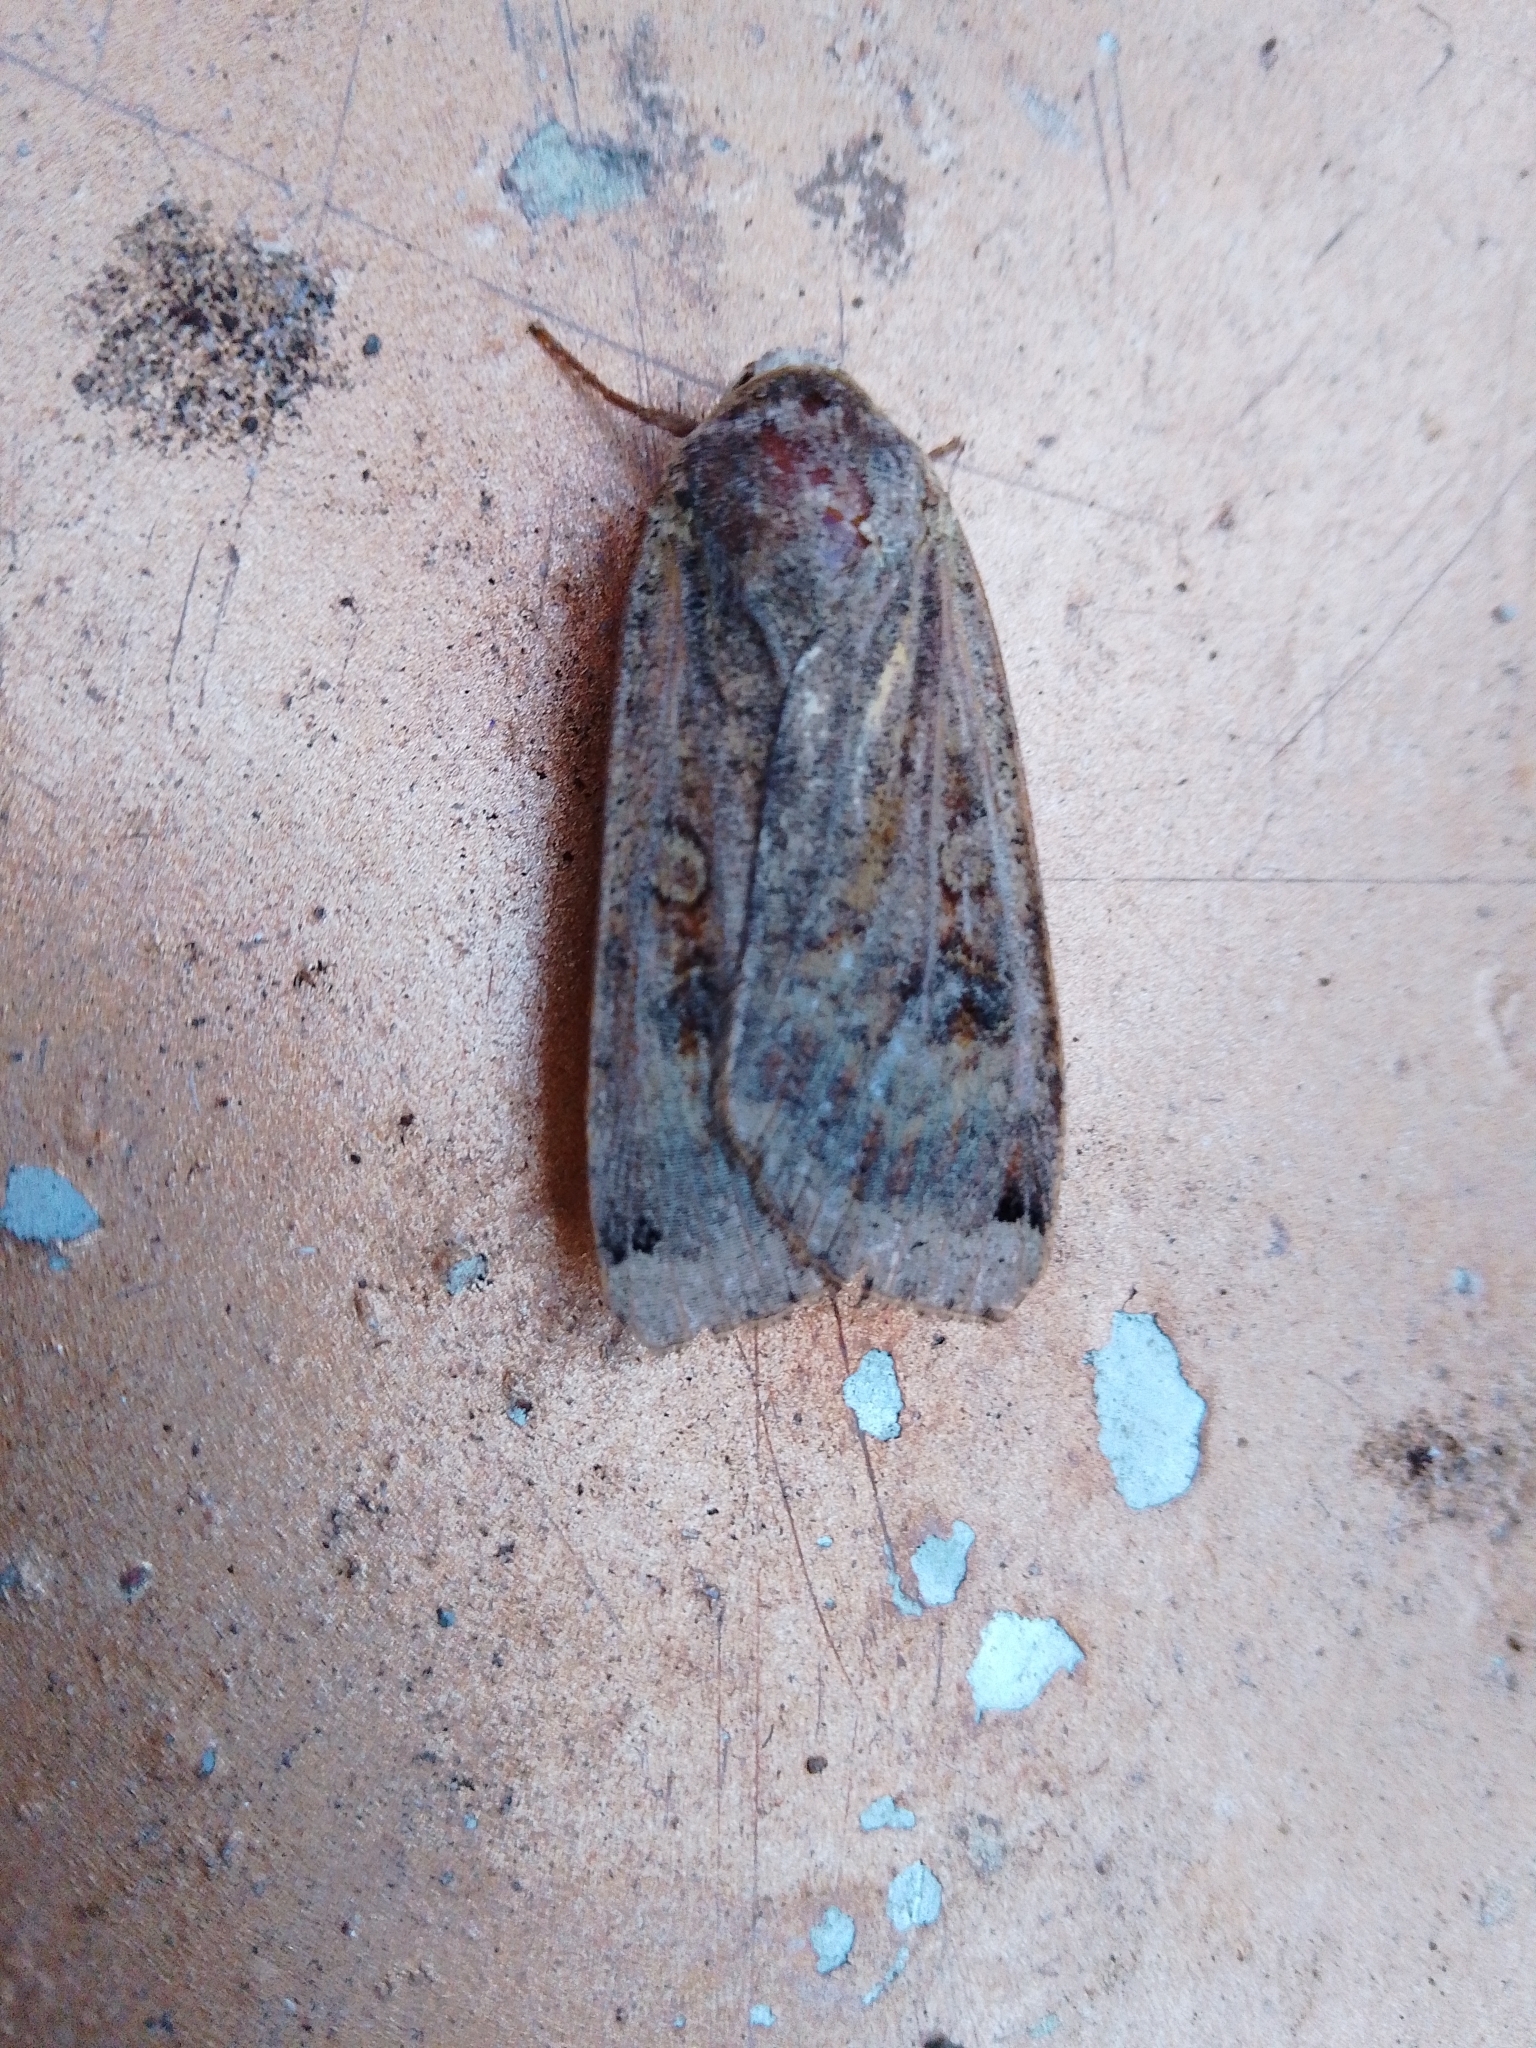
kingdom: Animalia
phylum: Arthropoda
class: Insecta
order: Lepidoptera
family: Noctuidae
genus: Noctua
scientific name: Noctua pronuba
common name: Large yellow underwing
